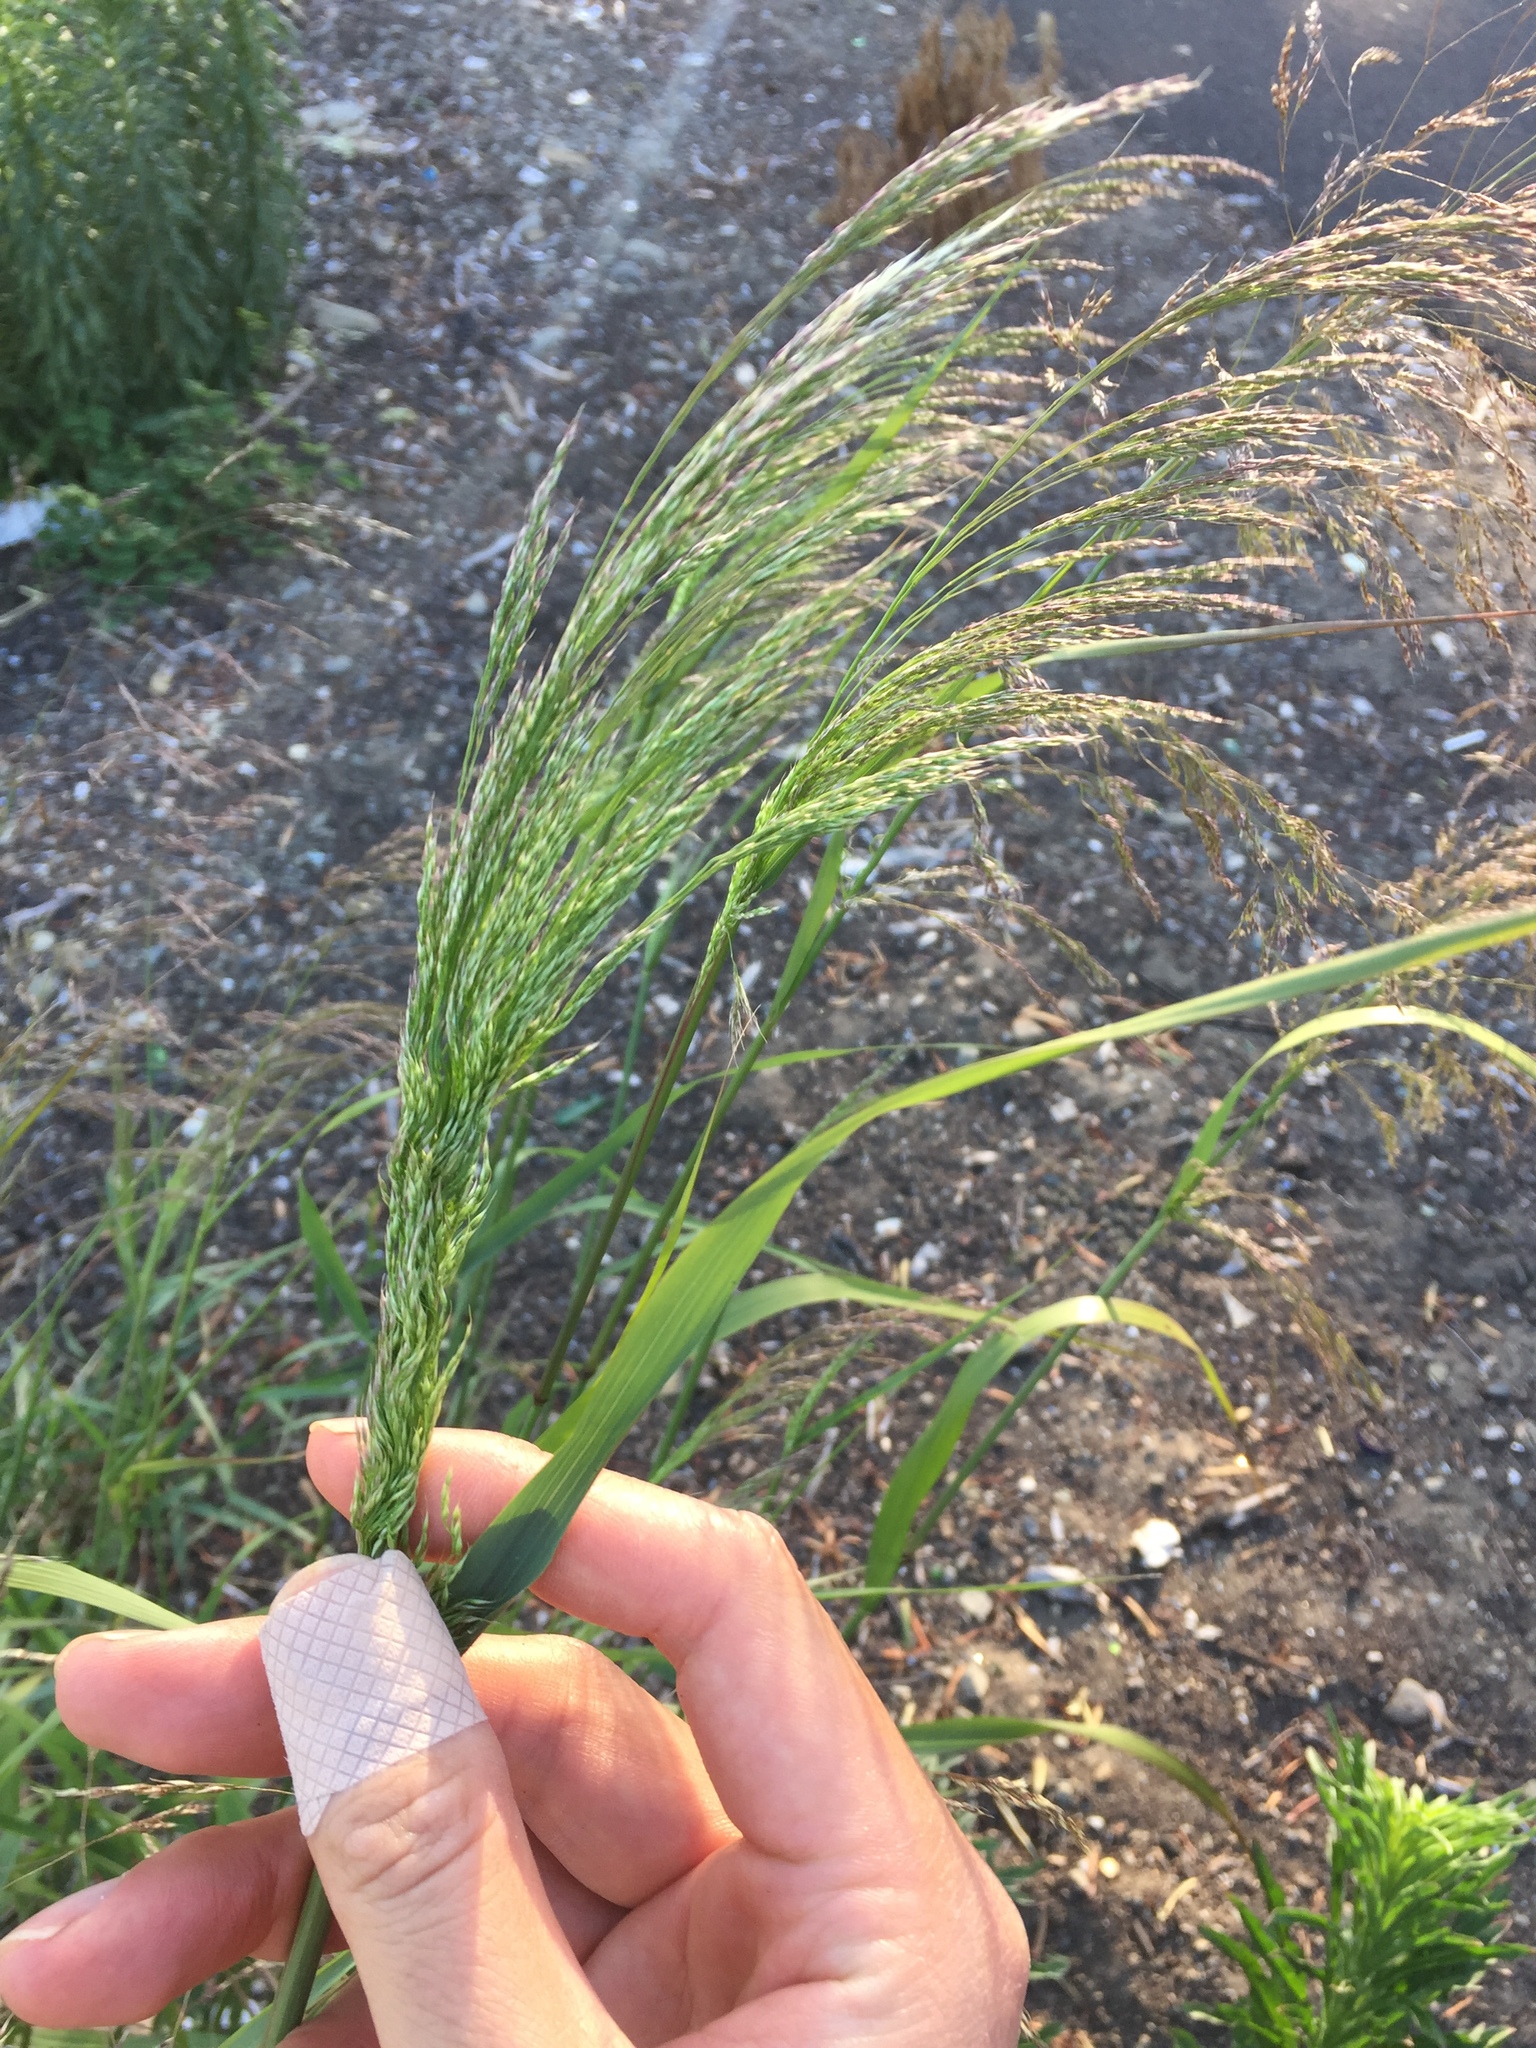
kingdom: Plantae
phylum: Tracheophyta
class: Liliopsida
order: Poales
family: Poaceae
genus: Oloptum
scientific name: Oloptum miliaceum
